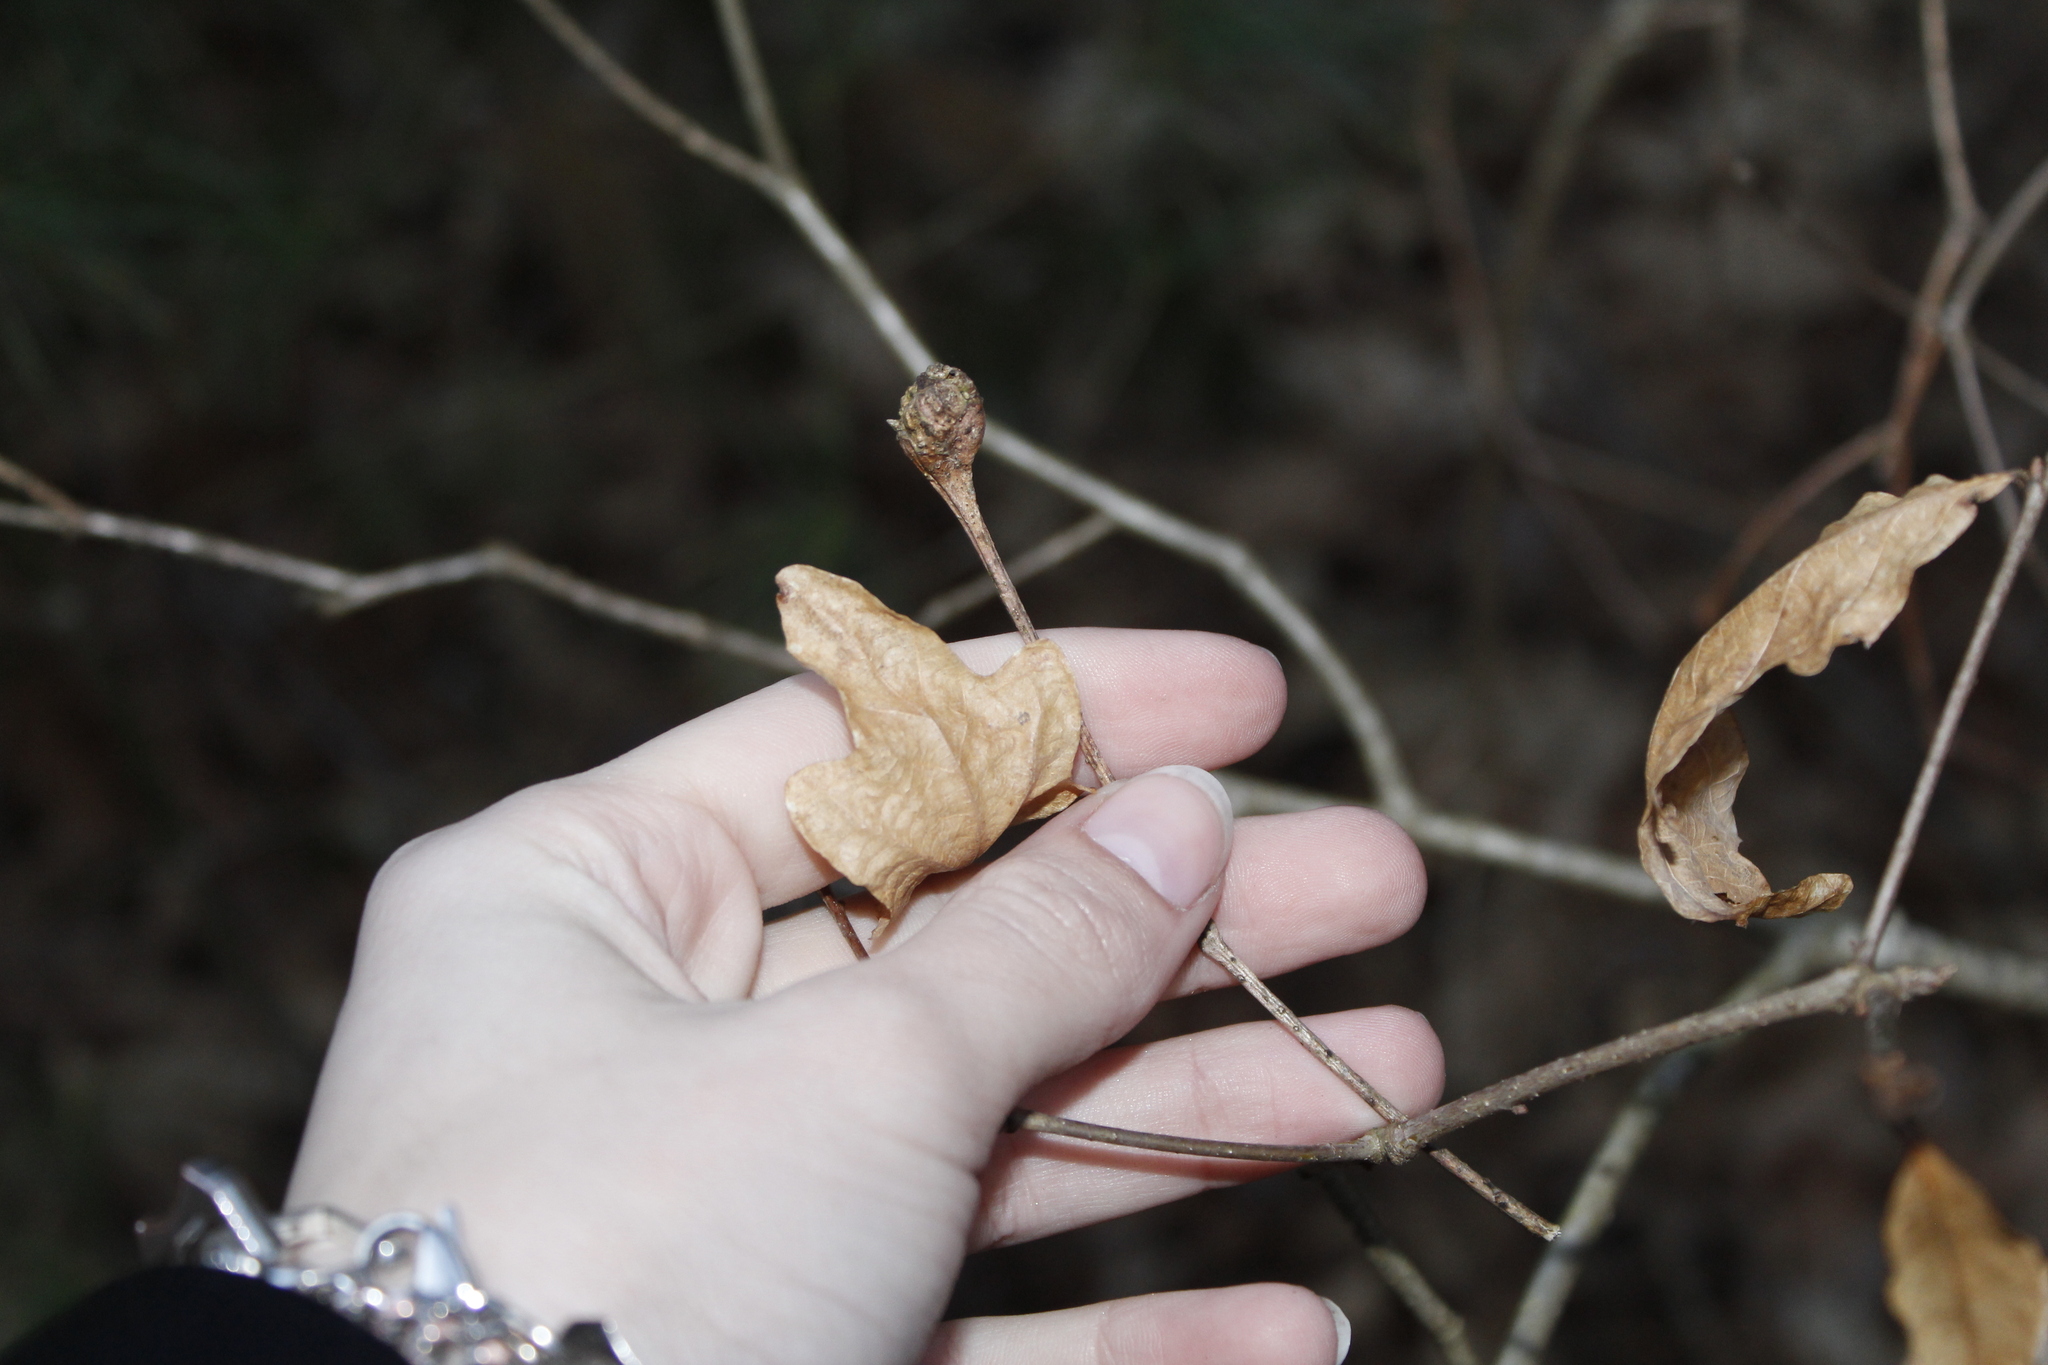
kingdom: Animalia
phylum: Arthropoda
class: Insecta
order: Hymenoptera
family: Cynipidae
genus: Callirhytis
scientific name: Callirhytis clavula
